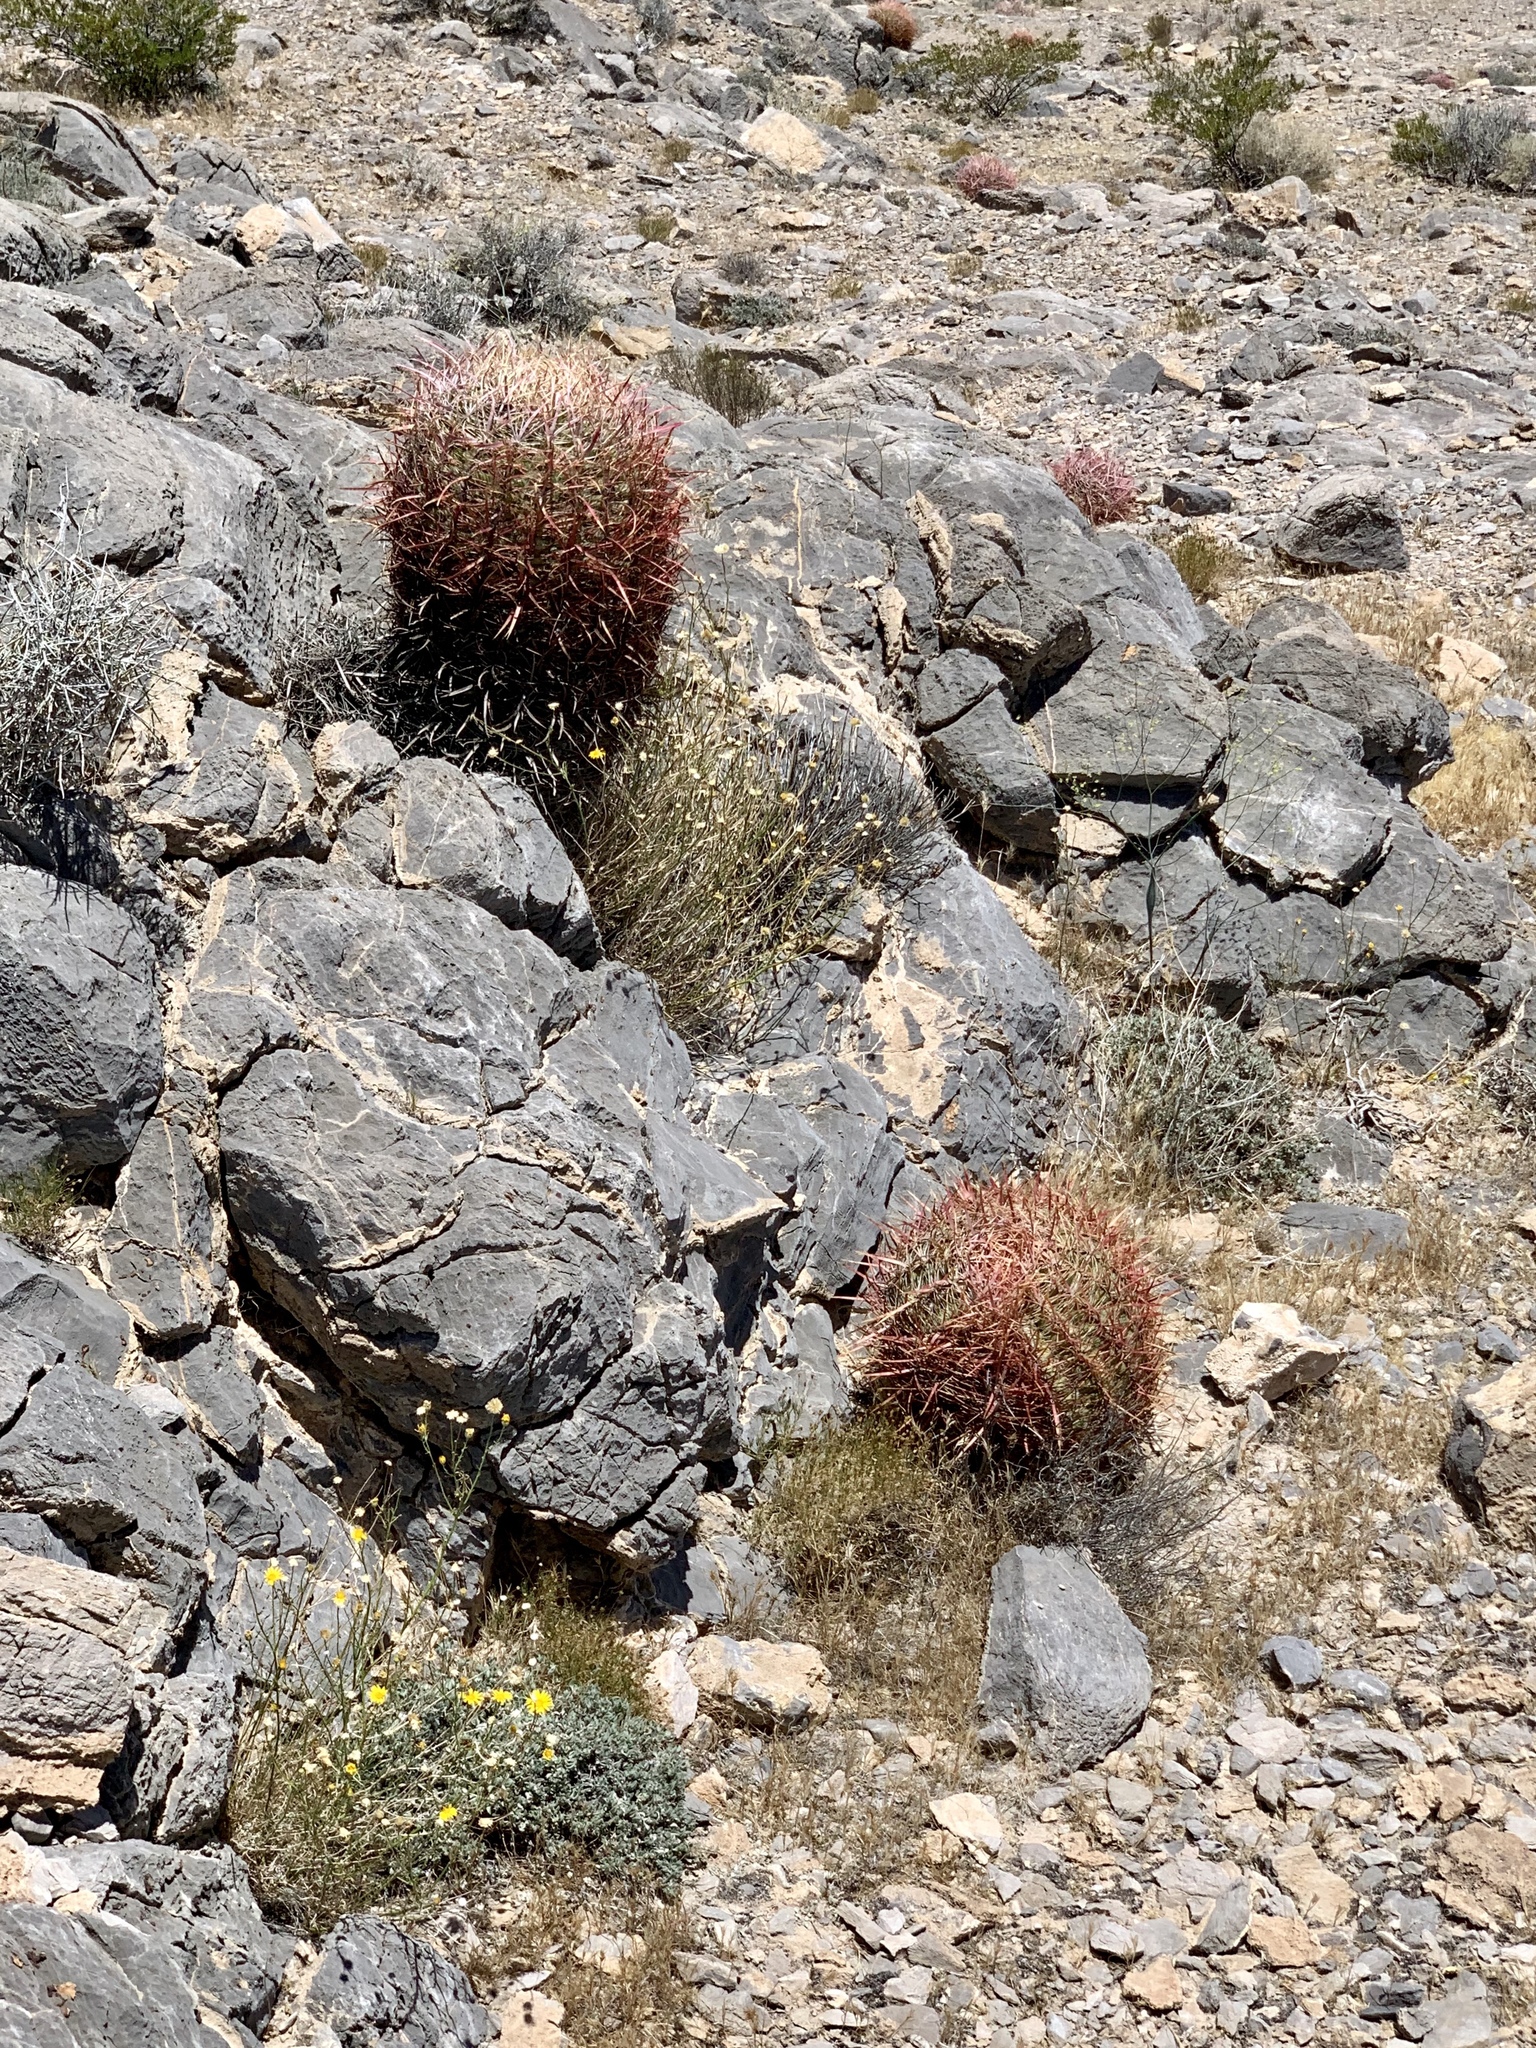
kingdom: Plantae
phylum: Tracheophyta
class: Magnoliopsida
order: Caryophyllales
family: Cactaceae
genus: Ferocactus
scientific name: Ferocactus cylindraceus
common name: California barrel cactus
